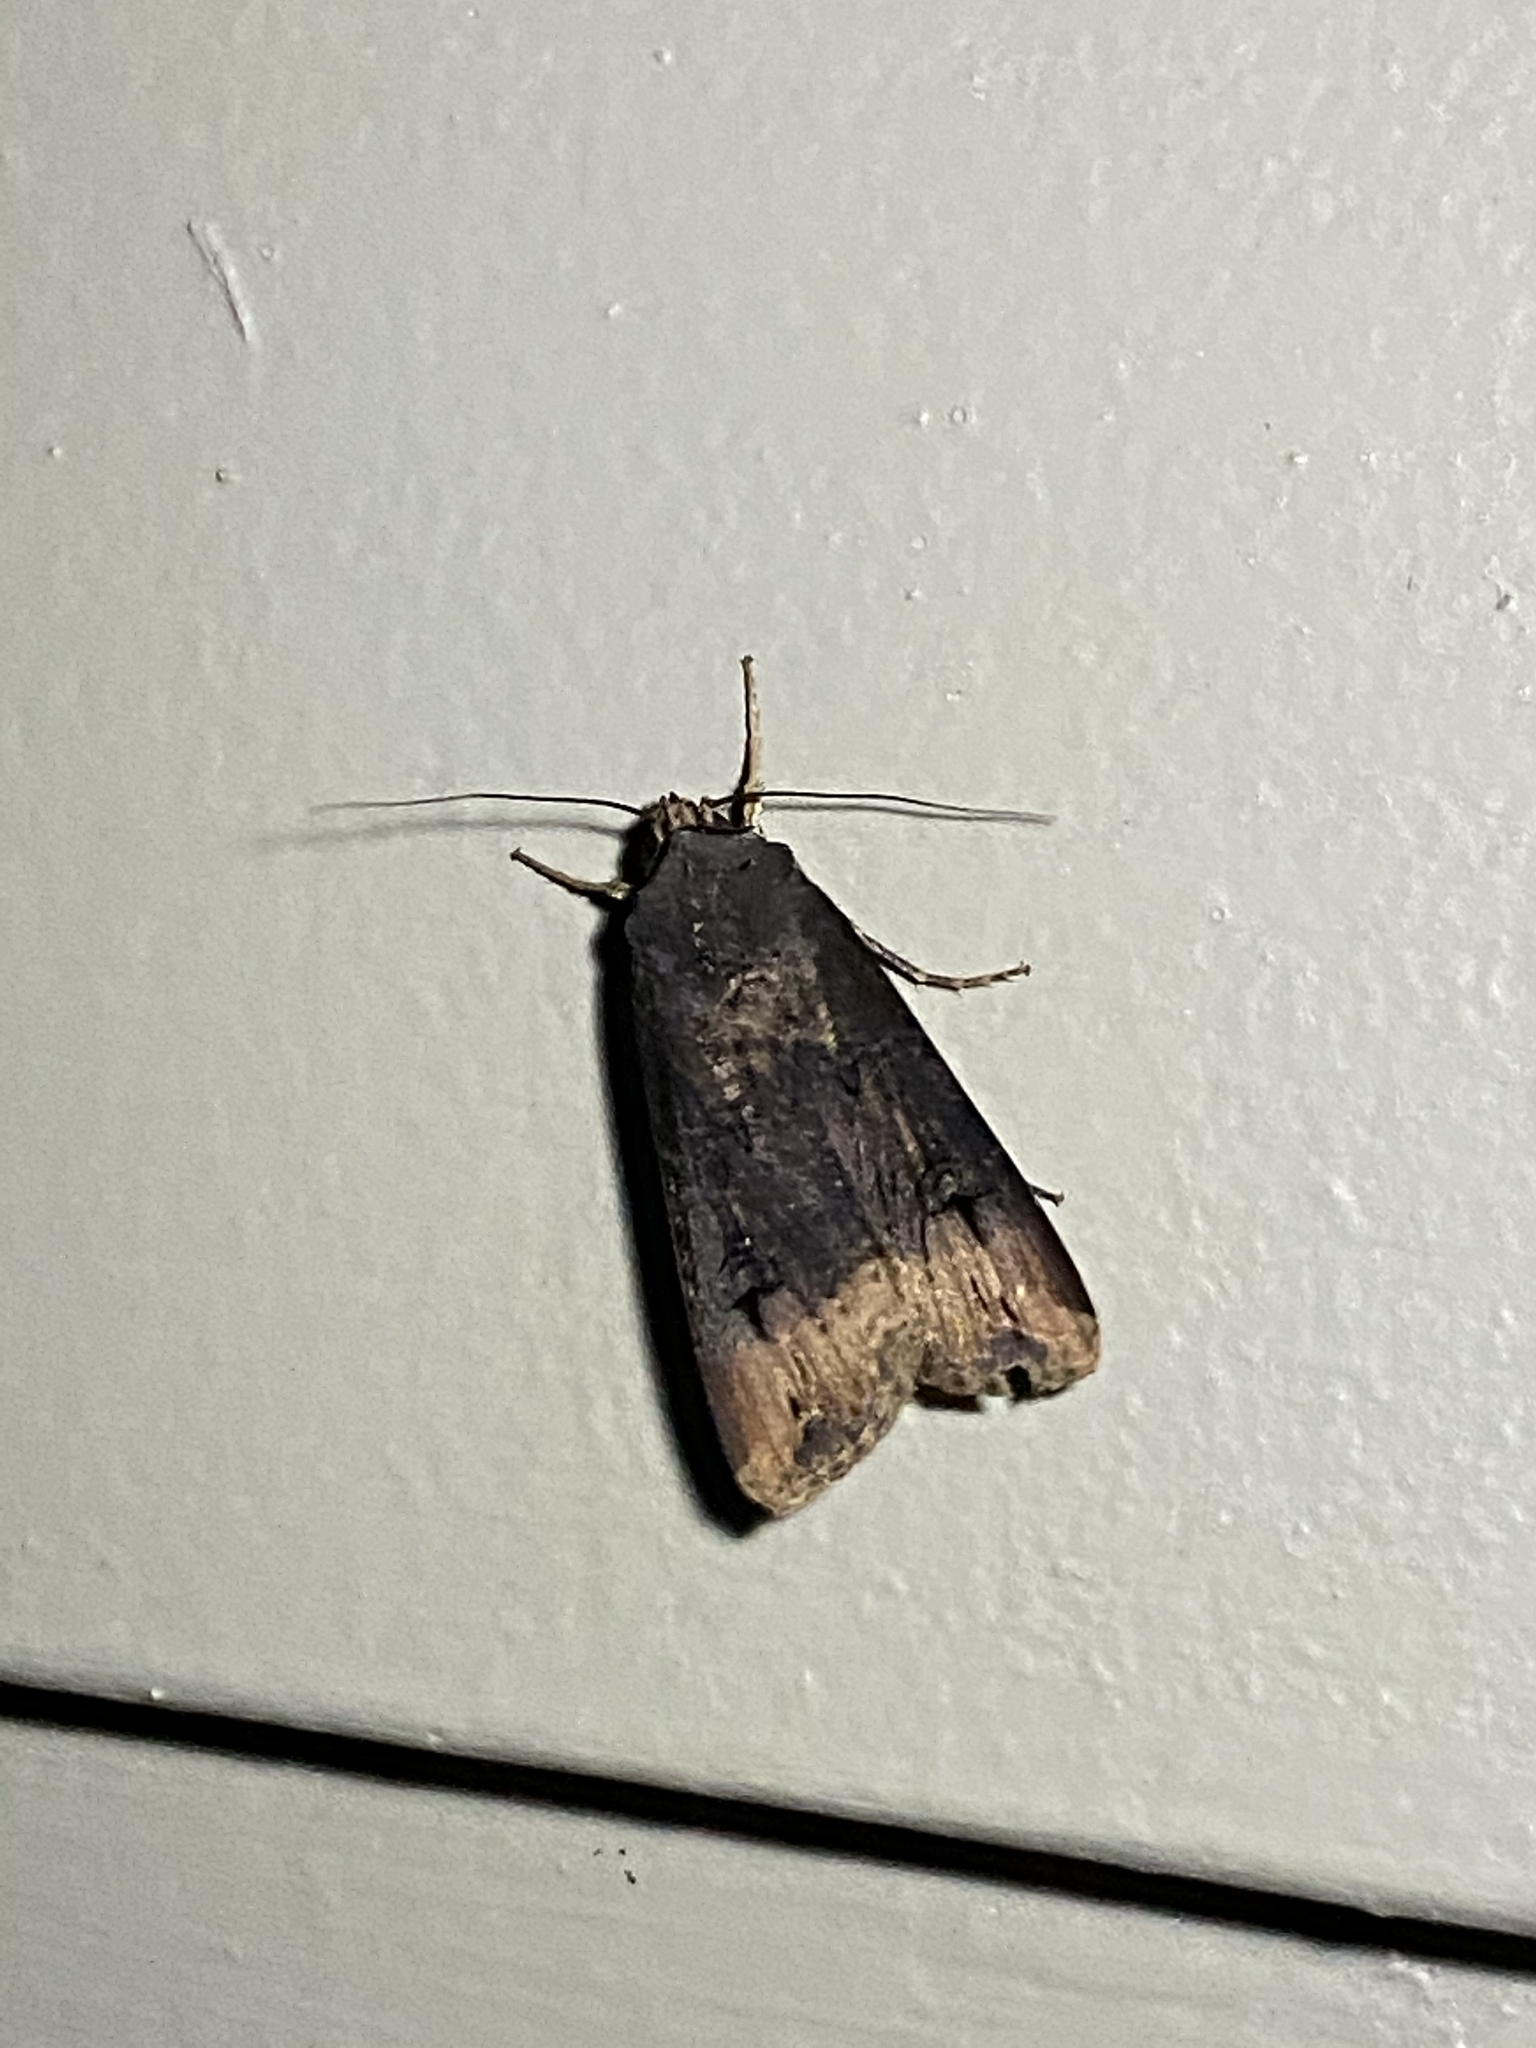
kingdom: Animalia
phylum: Arthropoda
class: Insecta
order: Lepidoptera
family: Noctuidae
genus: Agrotis
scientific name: Agrotis ipsilon
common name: Dark sword-grass
